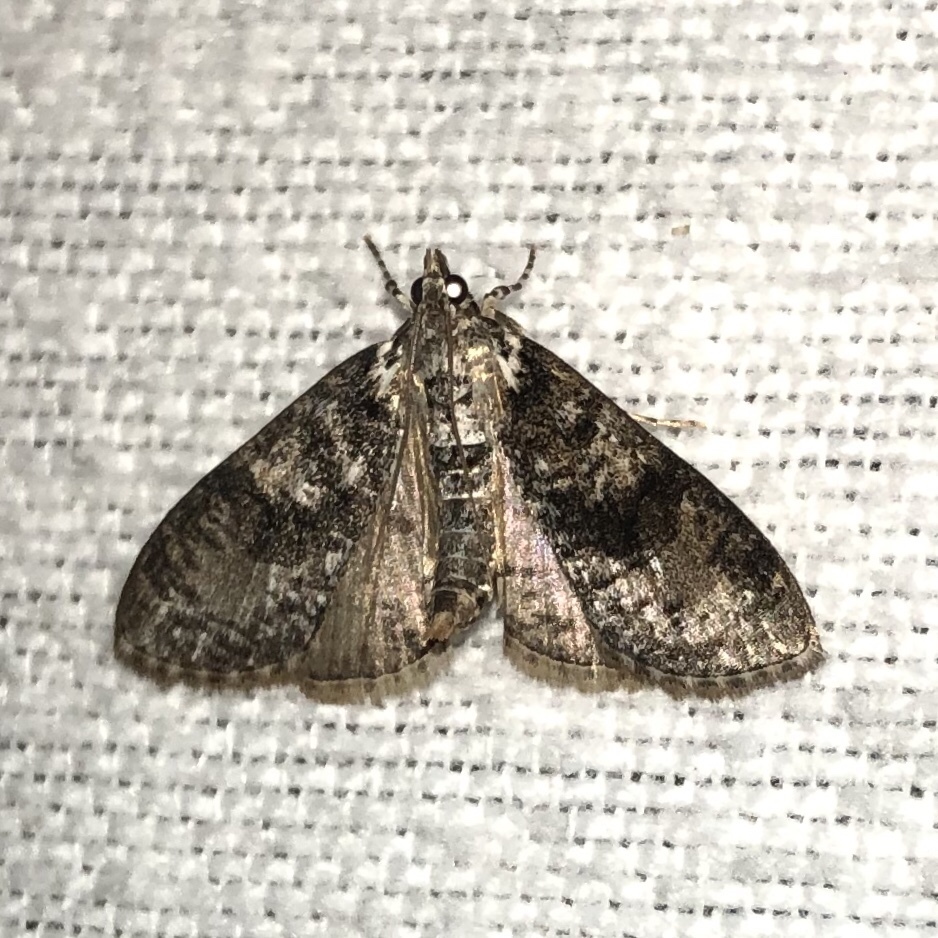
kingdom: Animalia
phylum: Arthropoda
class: Insecta
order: Lepidoptera
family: Crambidae
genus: Palpita
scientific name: Palpita magniferalis
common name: Splendid palpita moth
